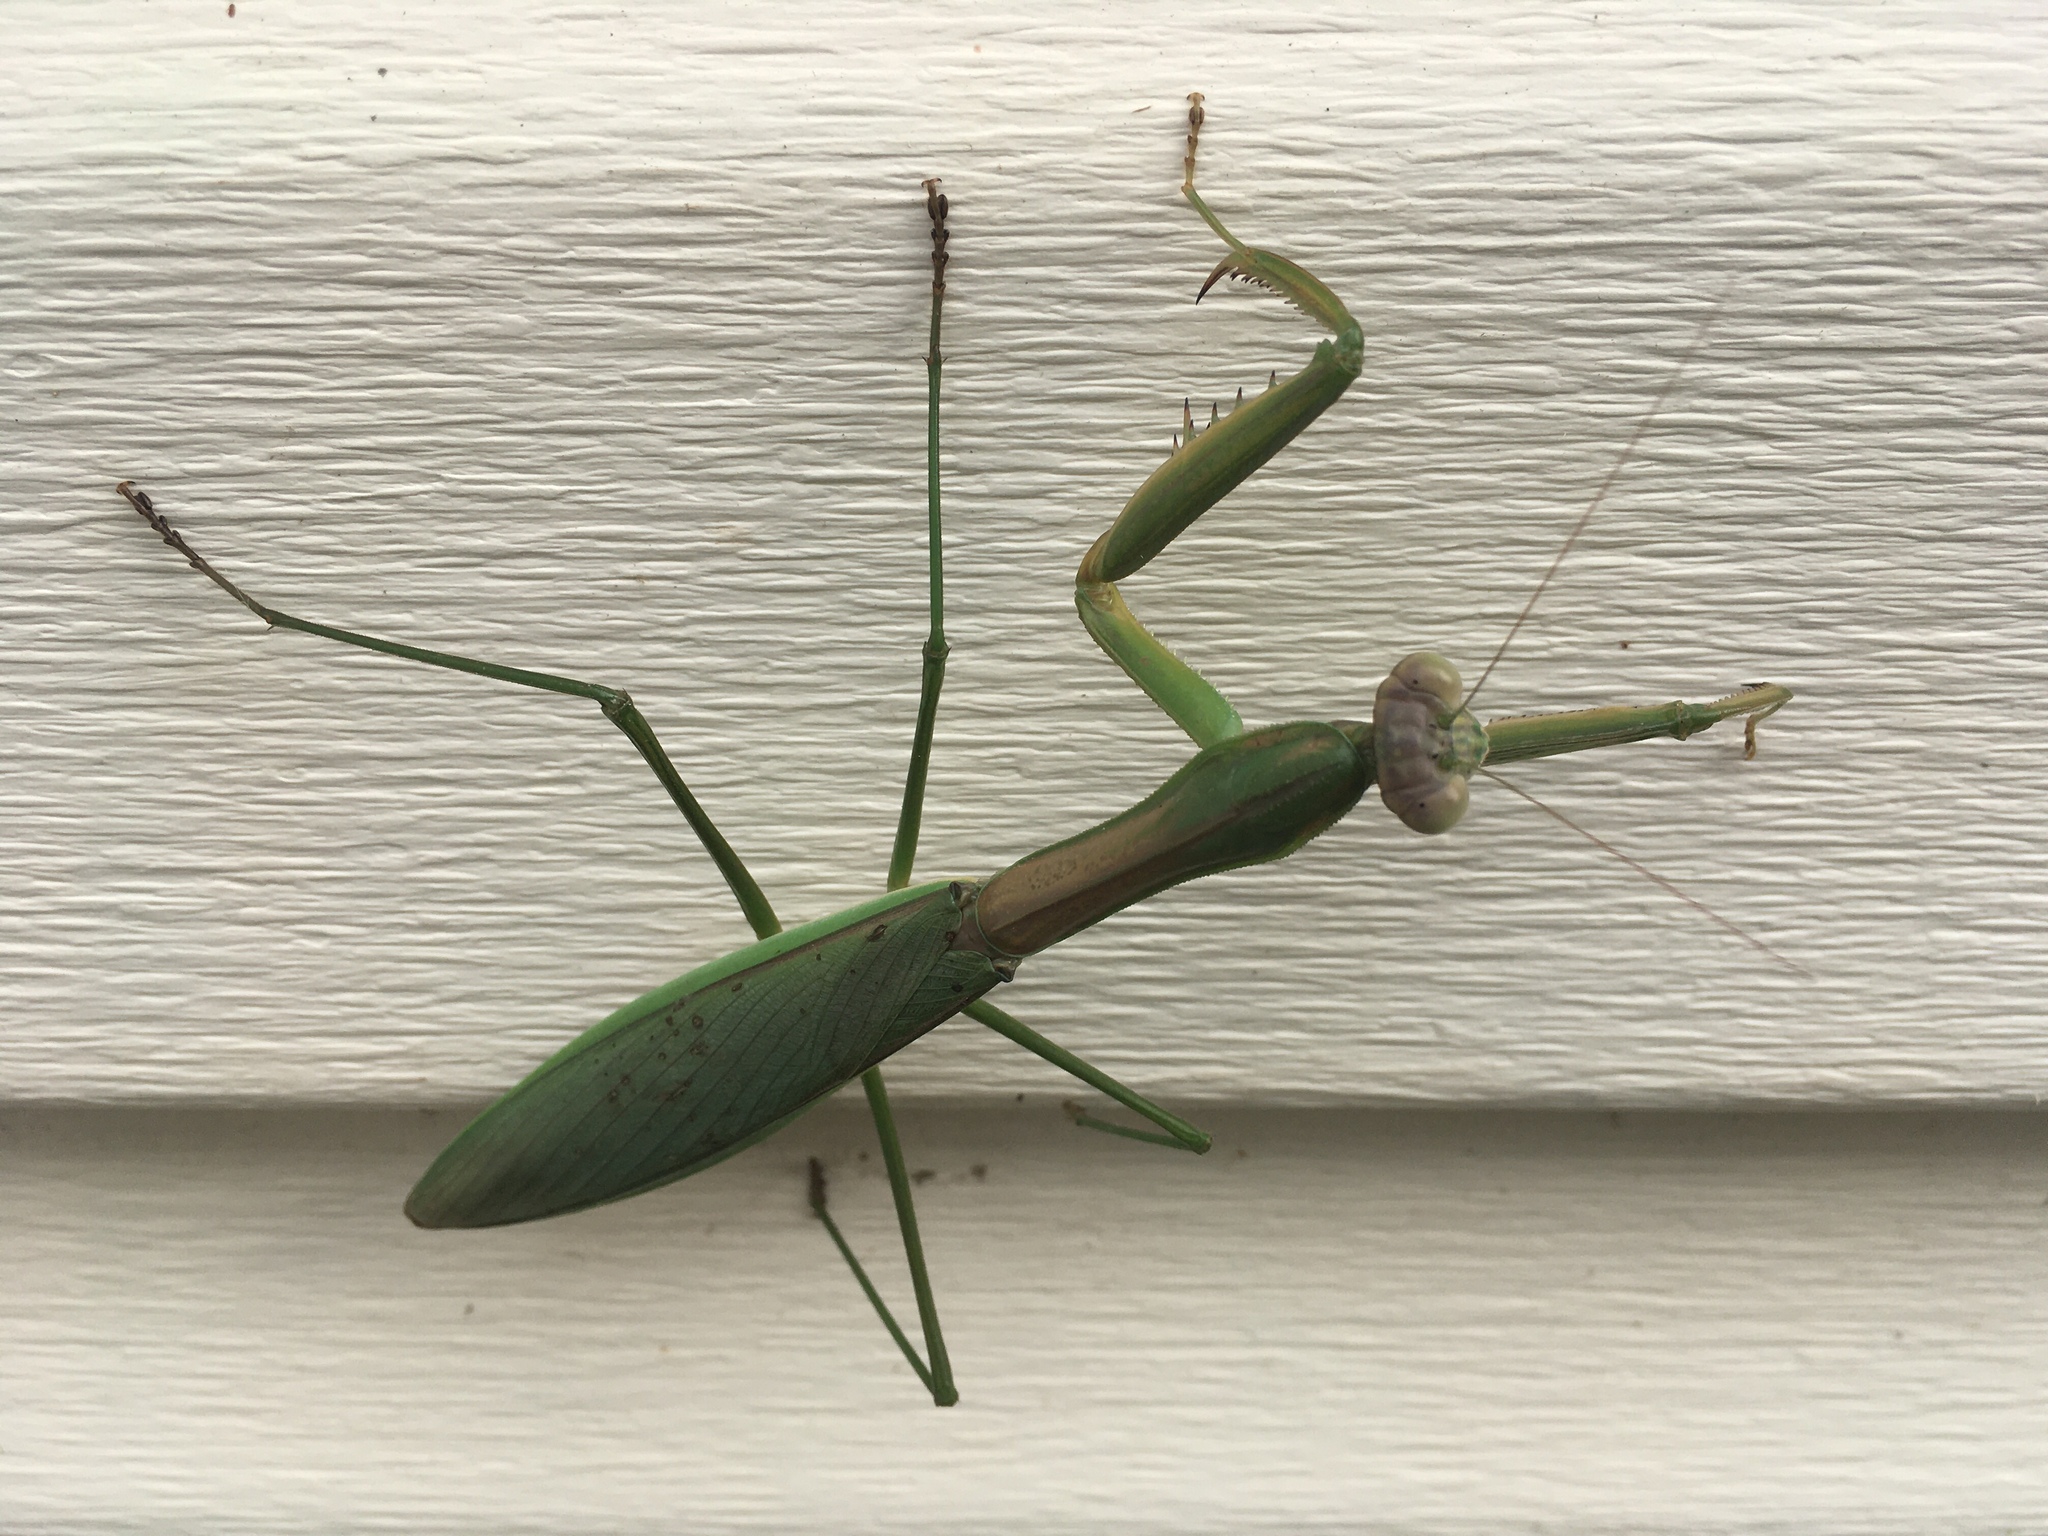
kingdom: Animalia
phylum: Arthropoda
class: Insecta
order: Mantodea
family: Mantidae
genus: Tenodera
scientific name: Tenodera sinensis
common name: Chinese mantis
